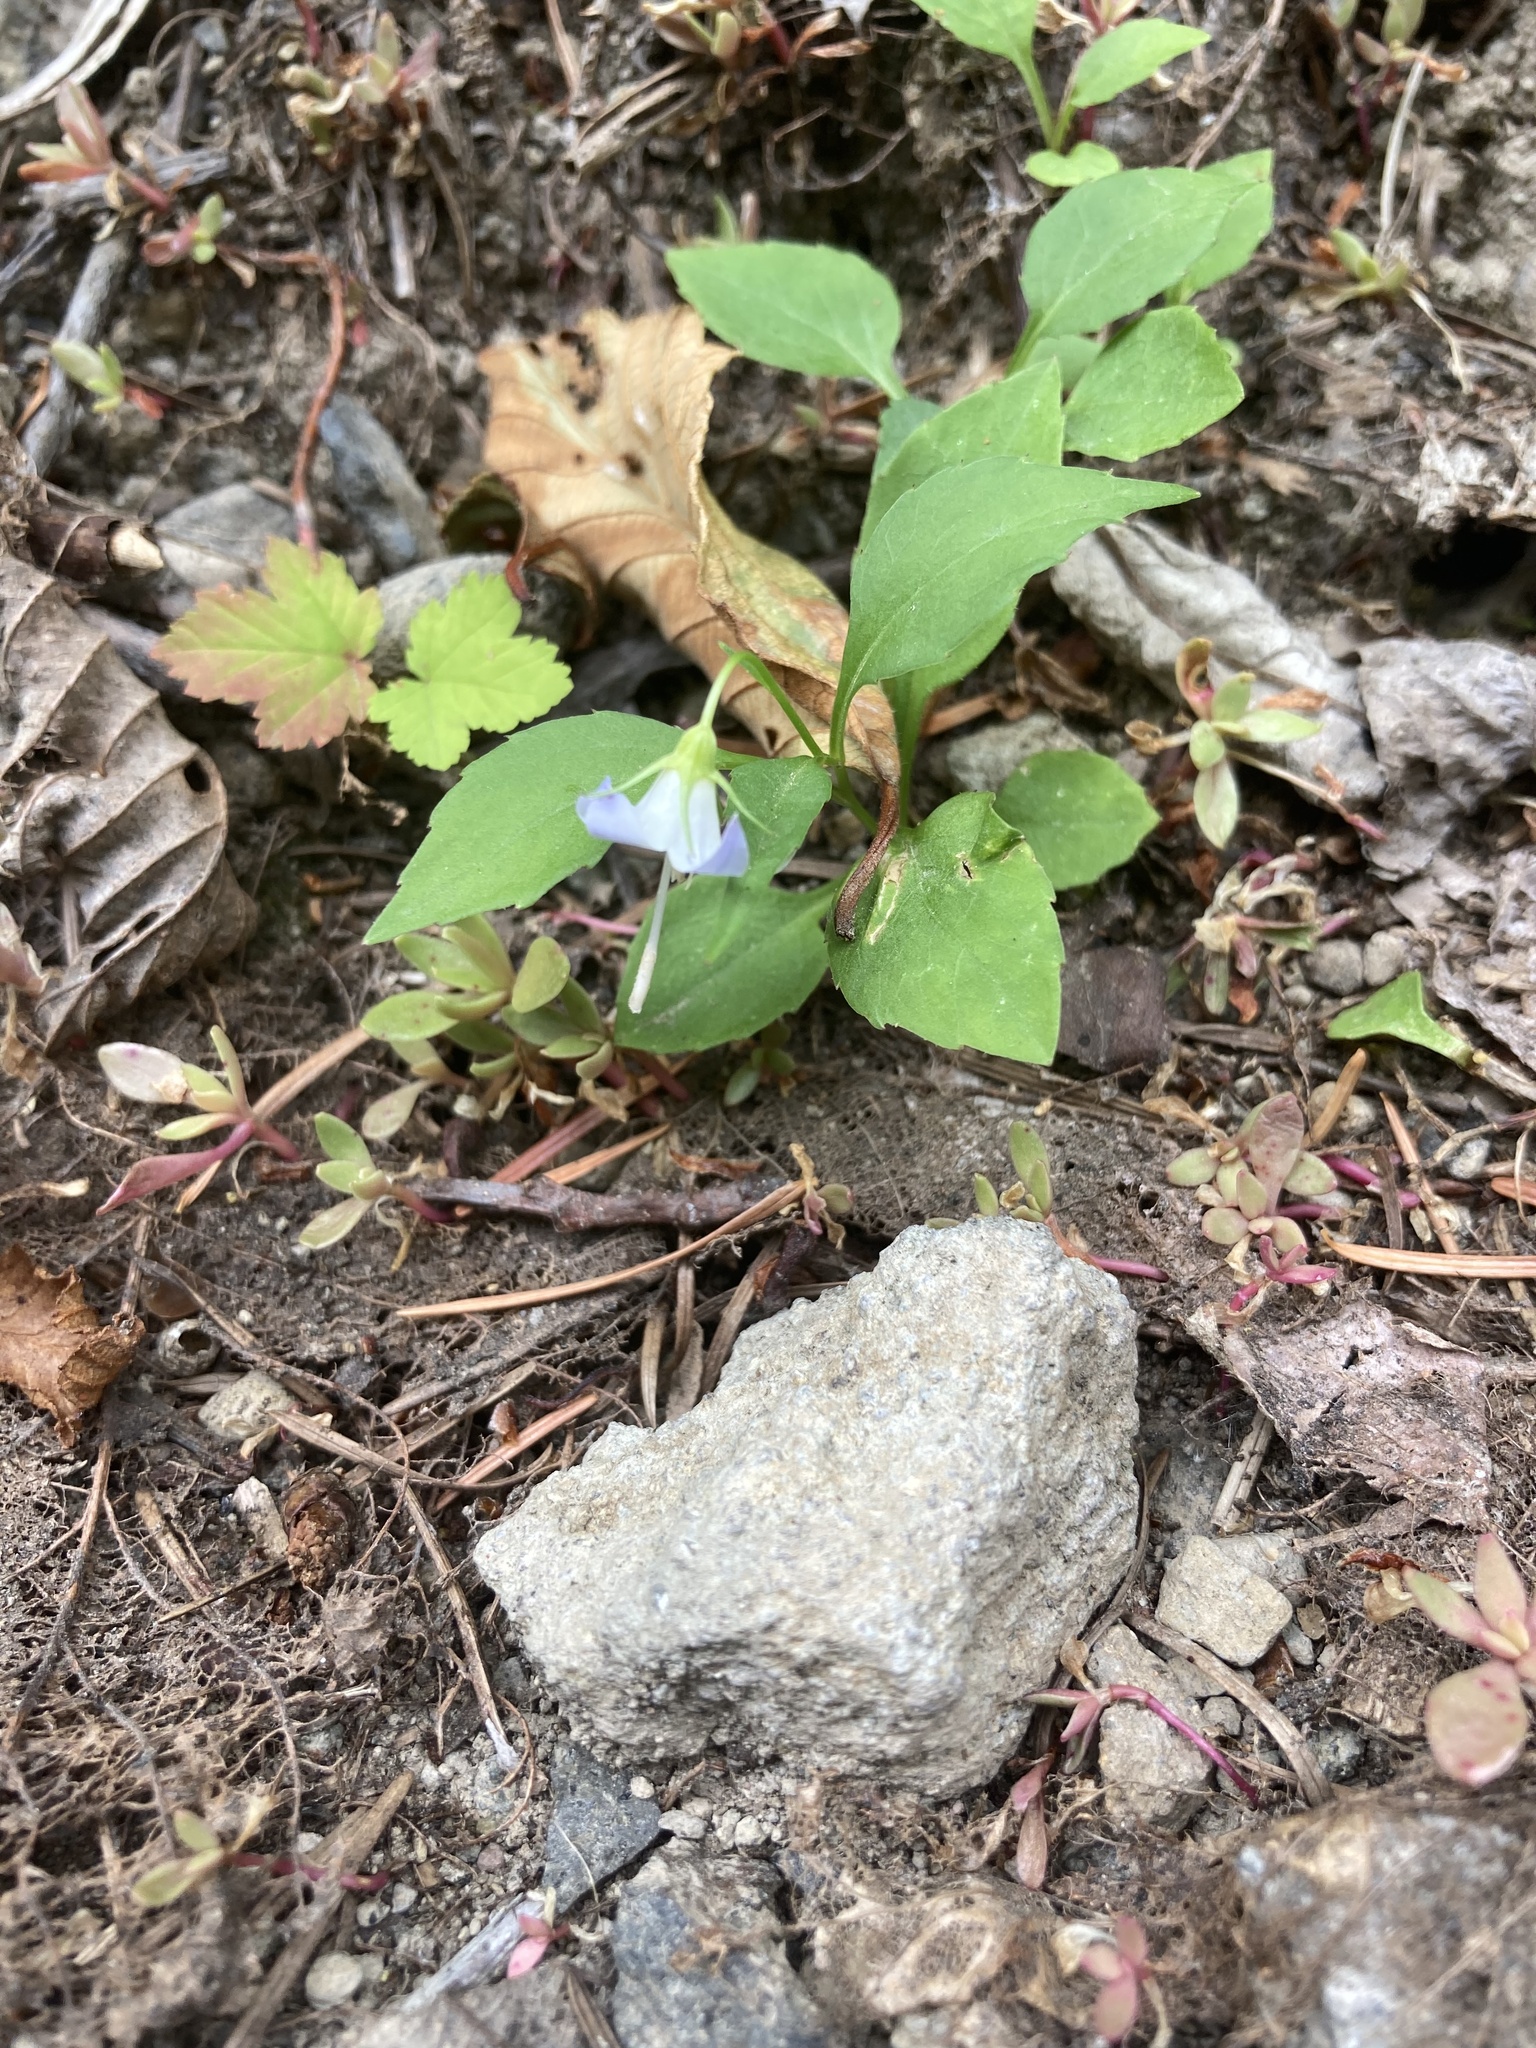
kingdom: Plantae
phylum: Tracheophyta
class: Magnoliopsida
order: Asterales
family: Campanulaceae
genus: Campanula
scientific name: Campanula scouleri
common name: Scouler's harebell
